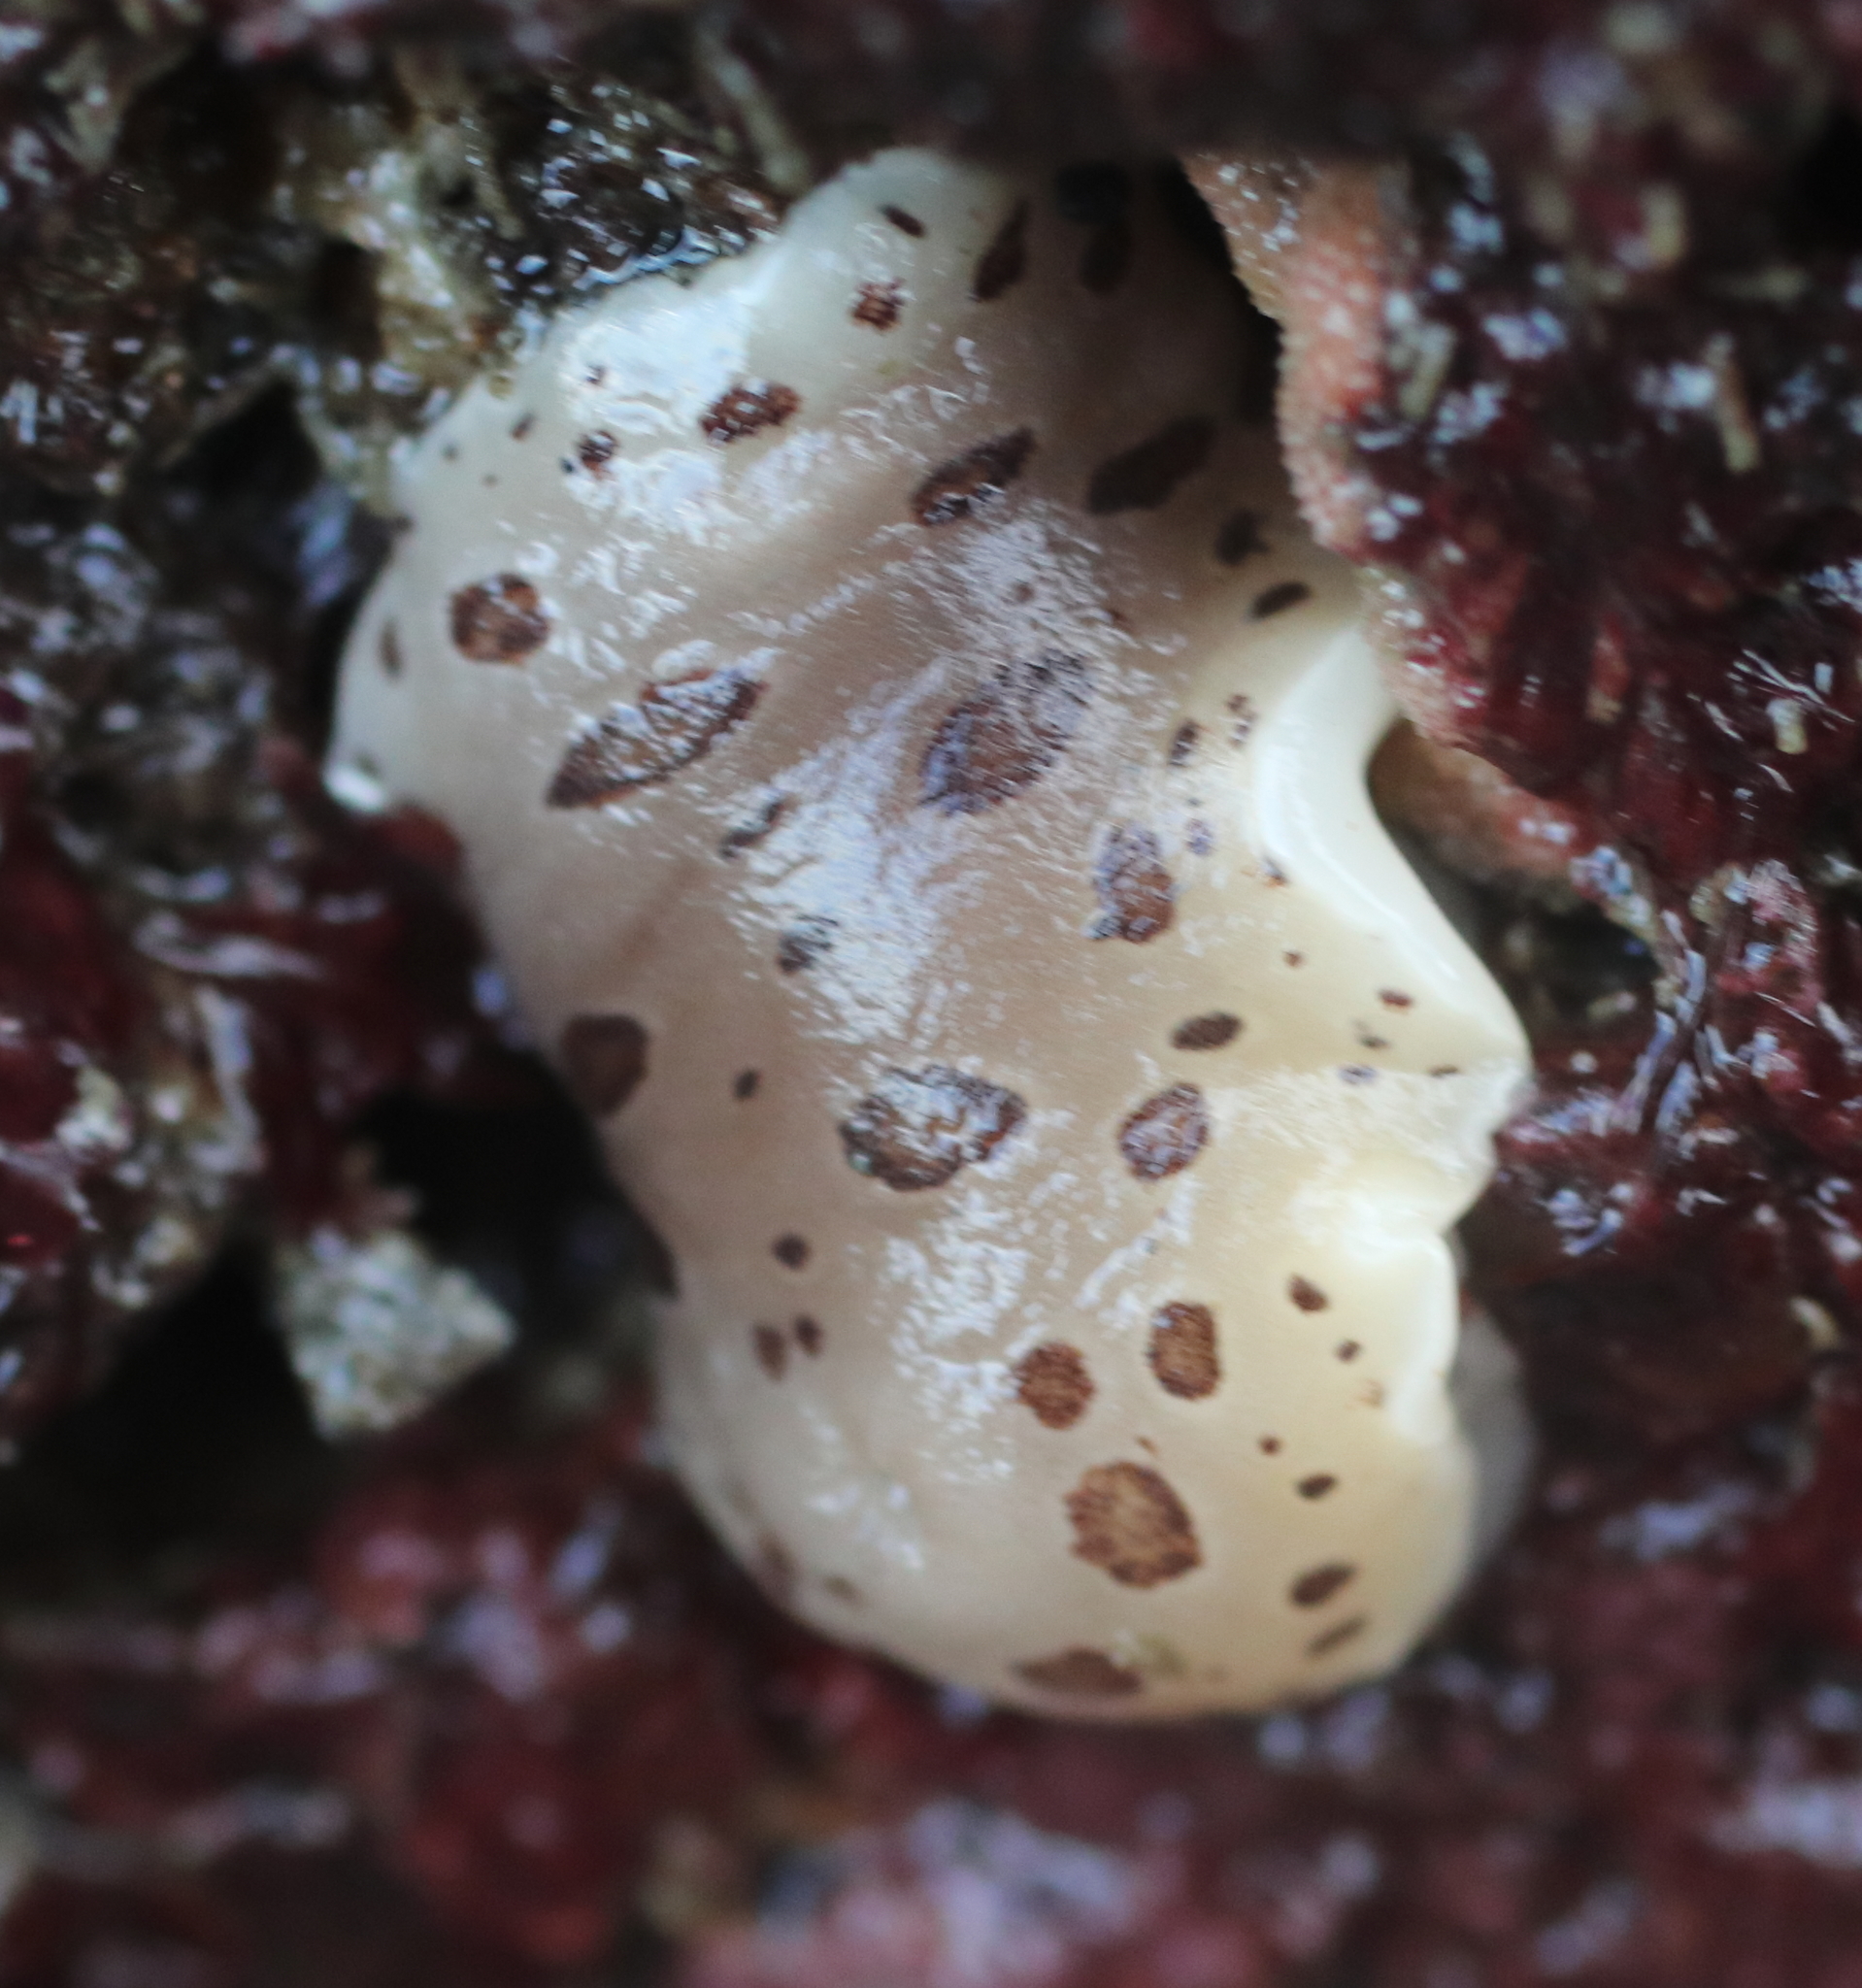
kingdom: Animalia
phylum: Mollusca
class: Gastropoda
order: Nudibranchia
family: Discodorididae
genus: Diaulula
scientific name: Diaulula odonoghuei
